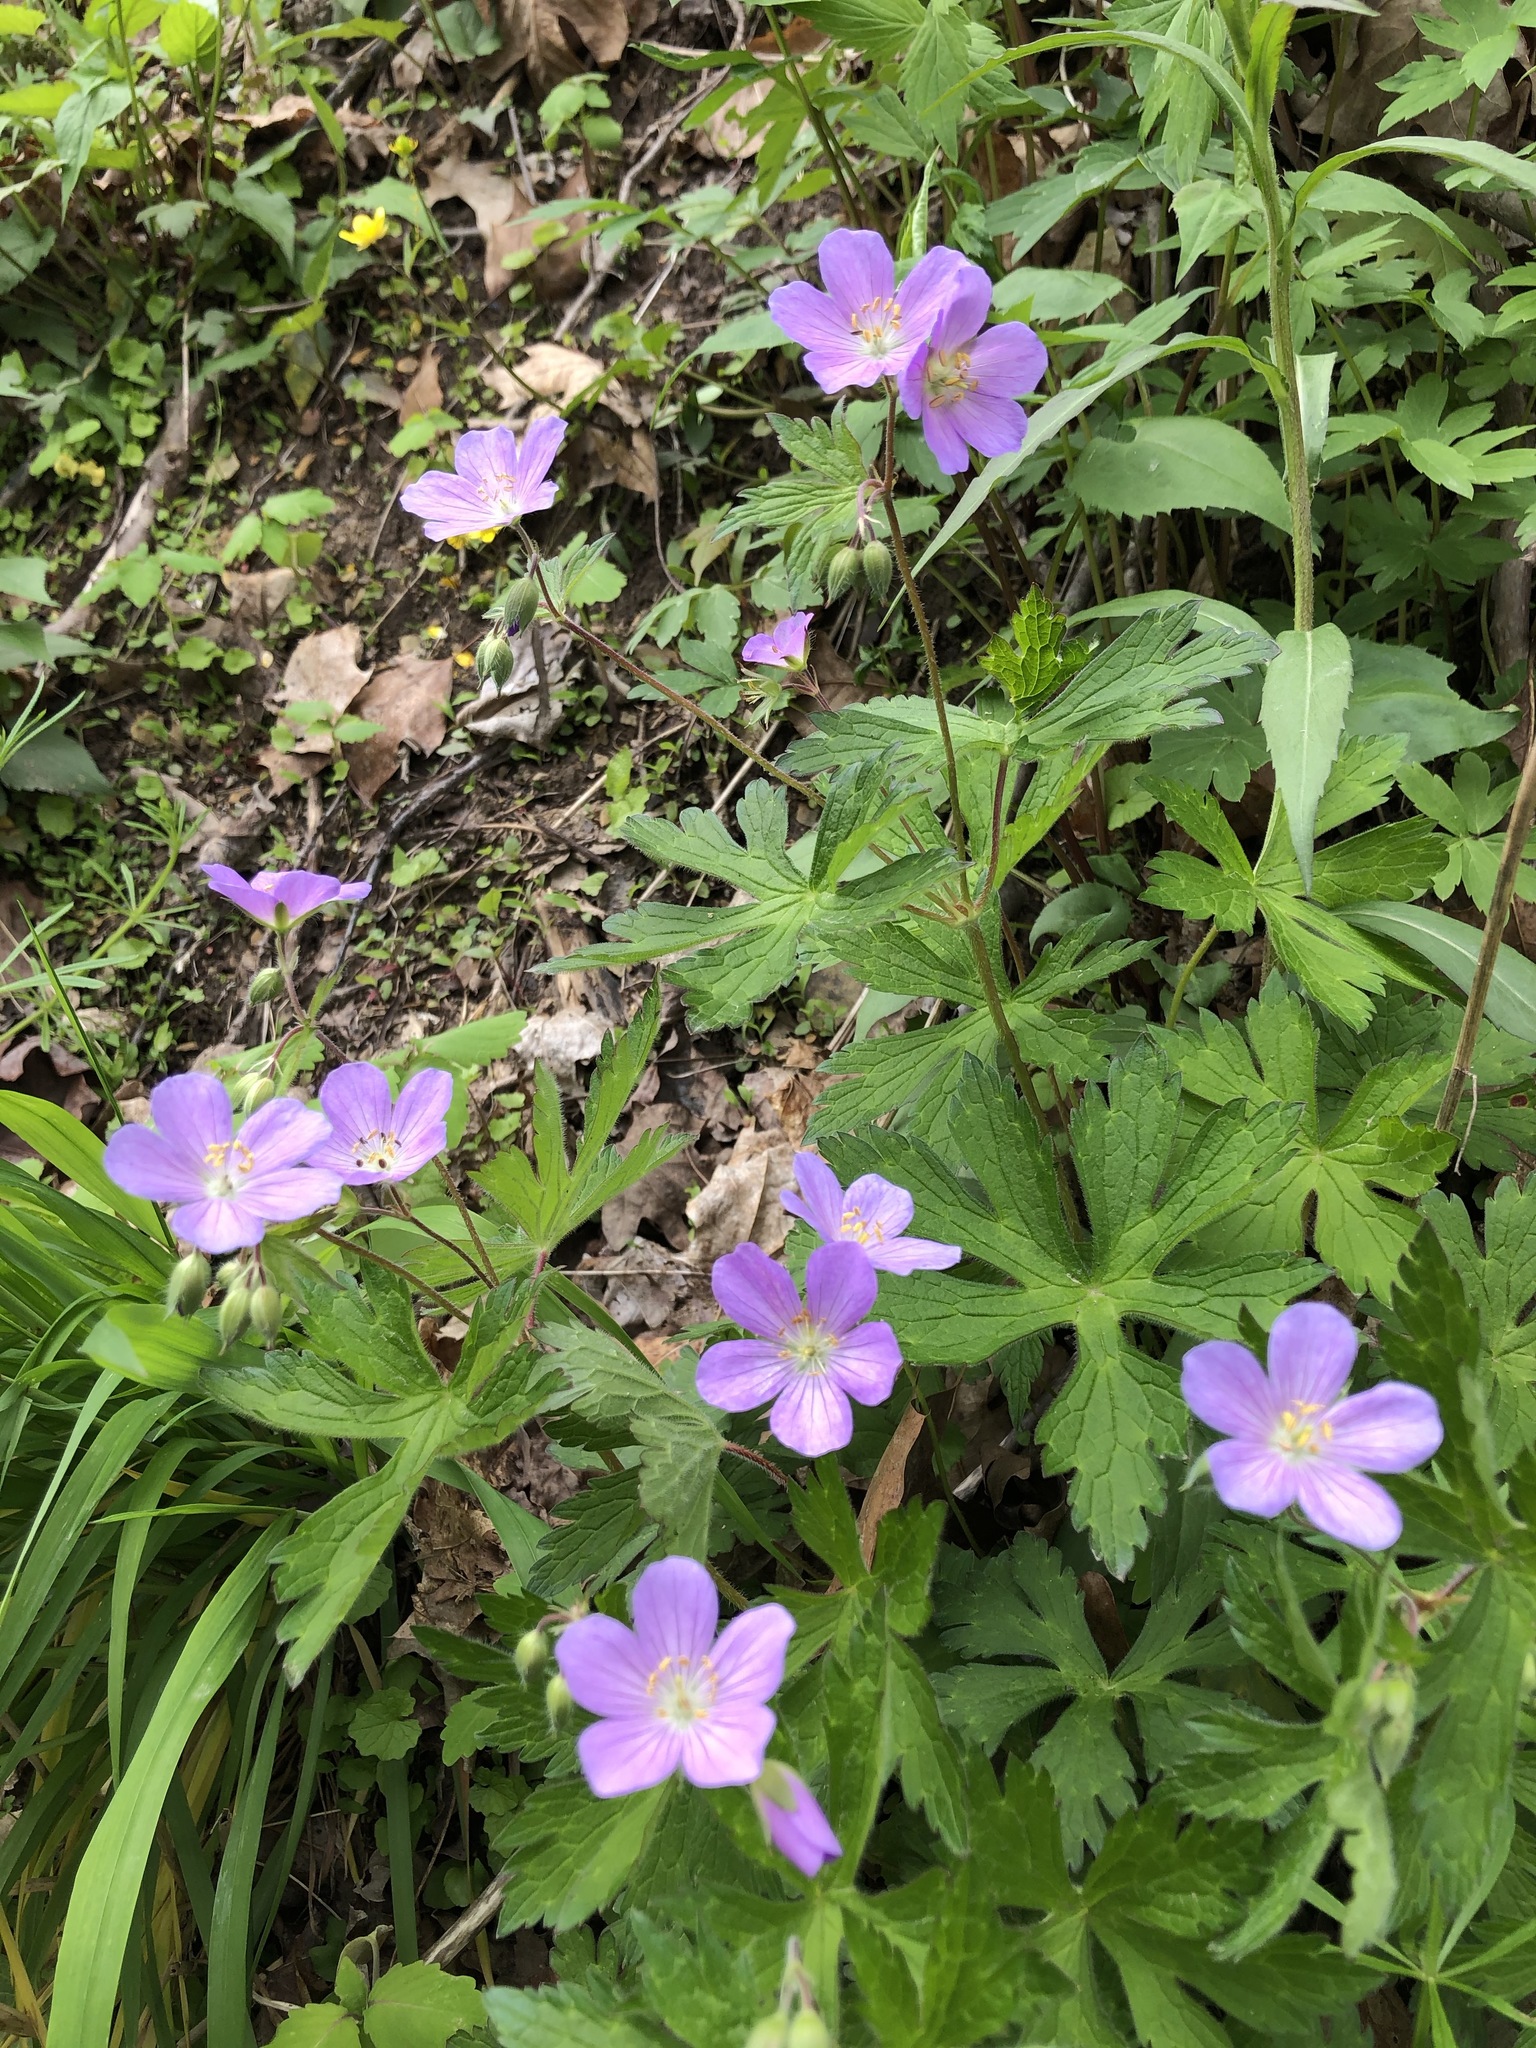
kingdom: Plantae
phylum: Tracheophyta
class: Magnoliopsida
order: Geraniales
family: Geraniaceae
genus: Geranium
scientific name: Geranium maculatum
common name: Spotted geranium
